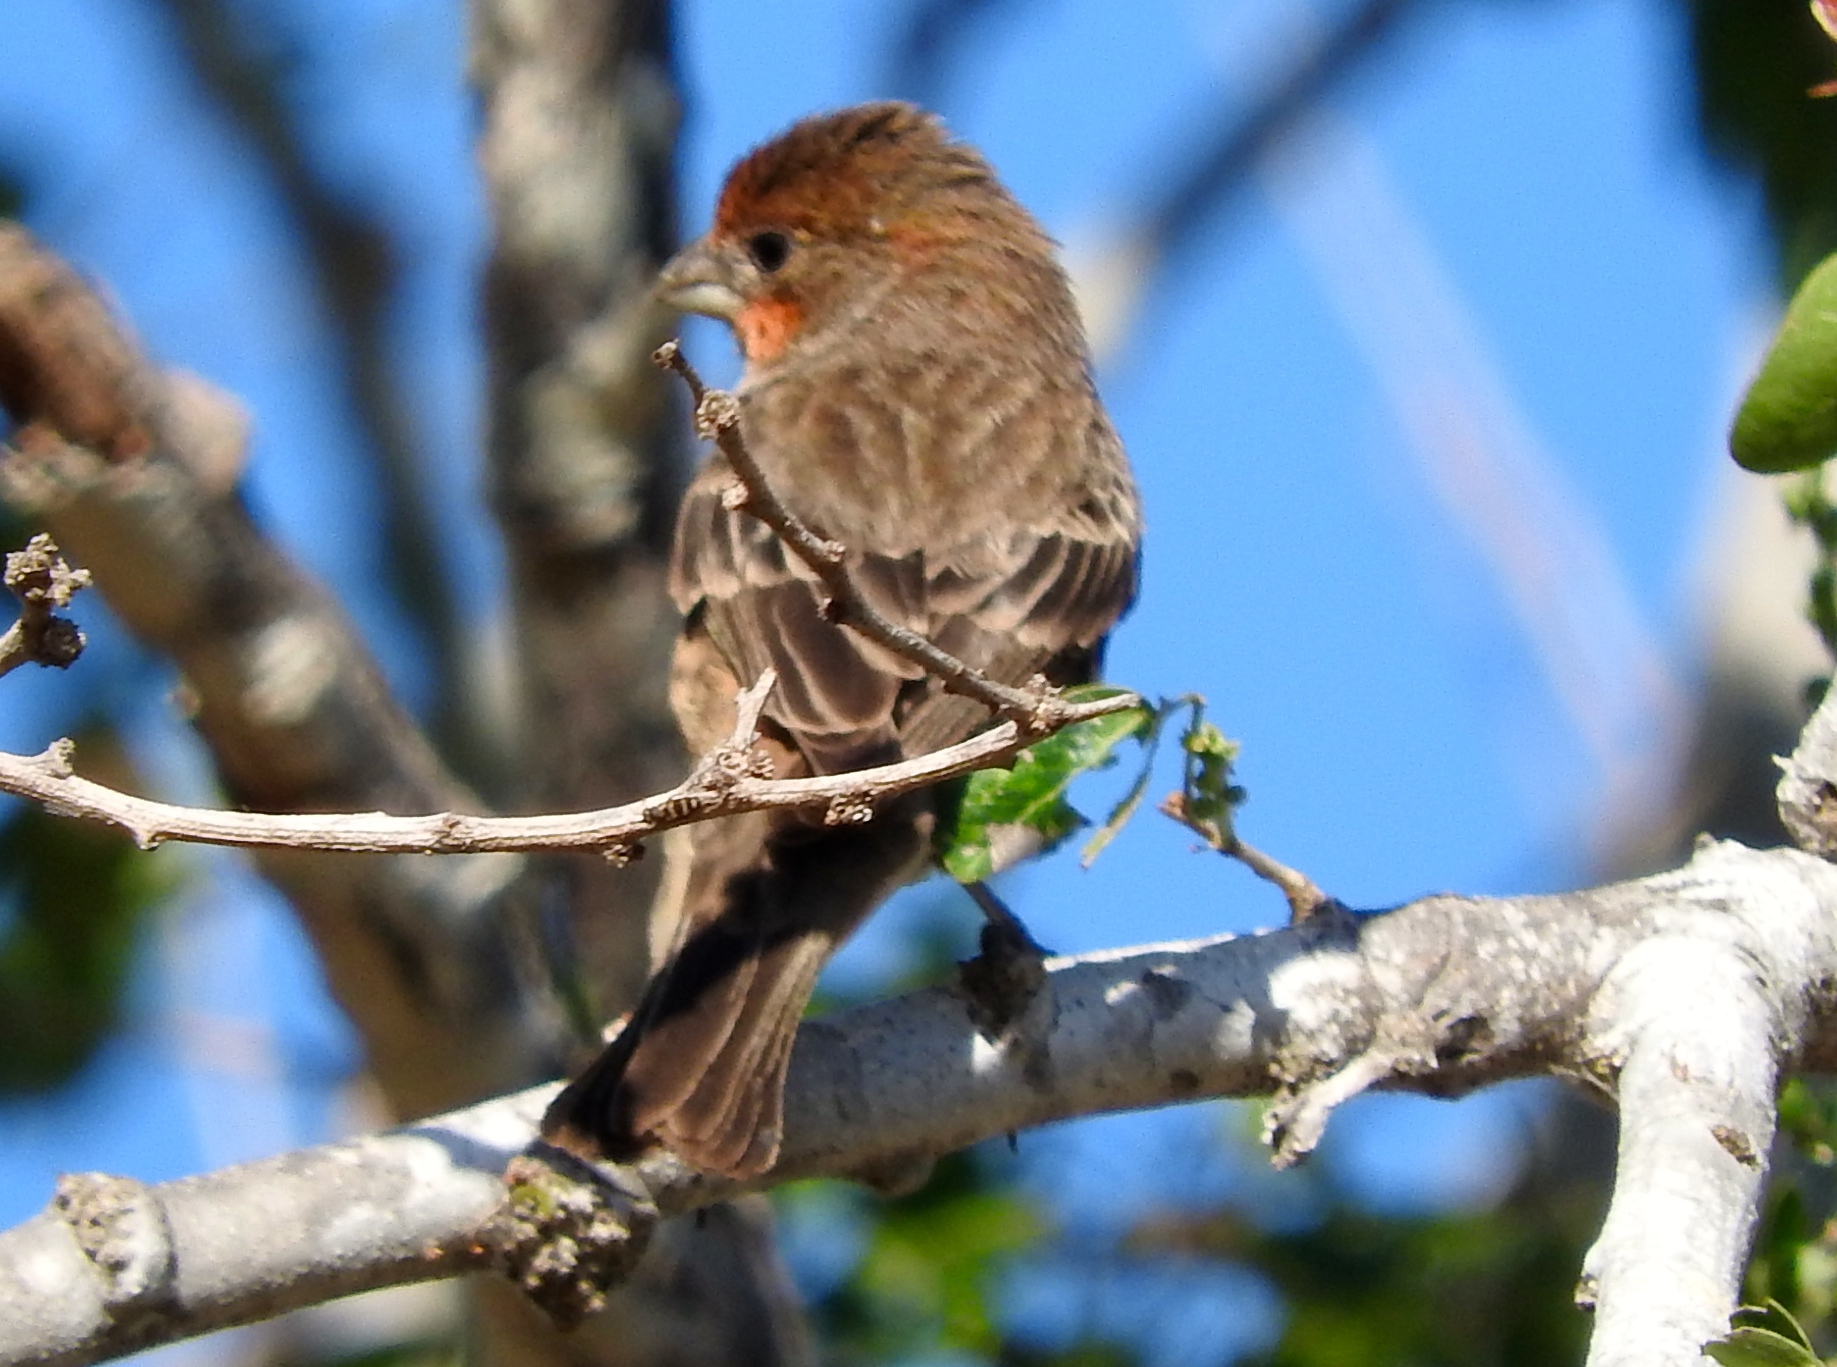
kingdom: Animalia
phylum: Chordata
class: Aves
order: Passeriformes
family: Fringillidae
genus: Haemorhous
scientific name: Haemorhous mexicanus
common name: House finch
